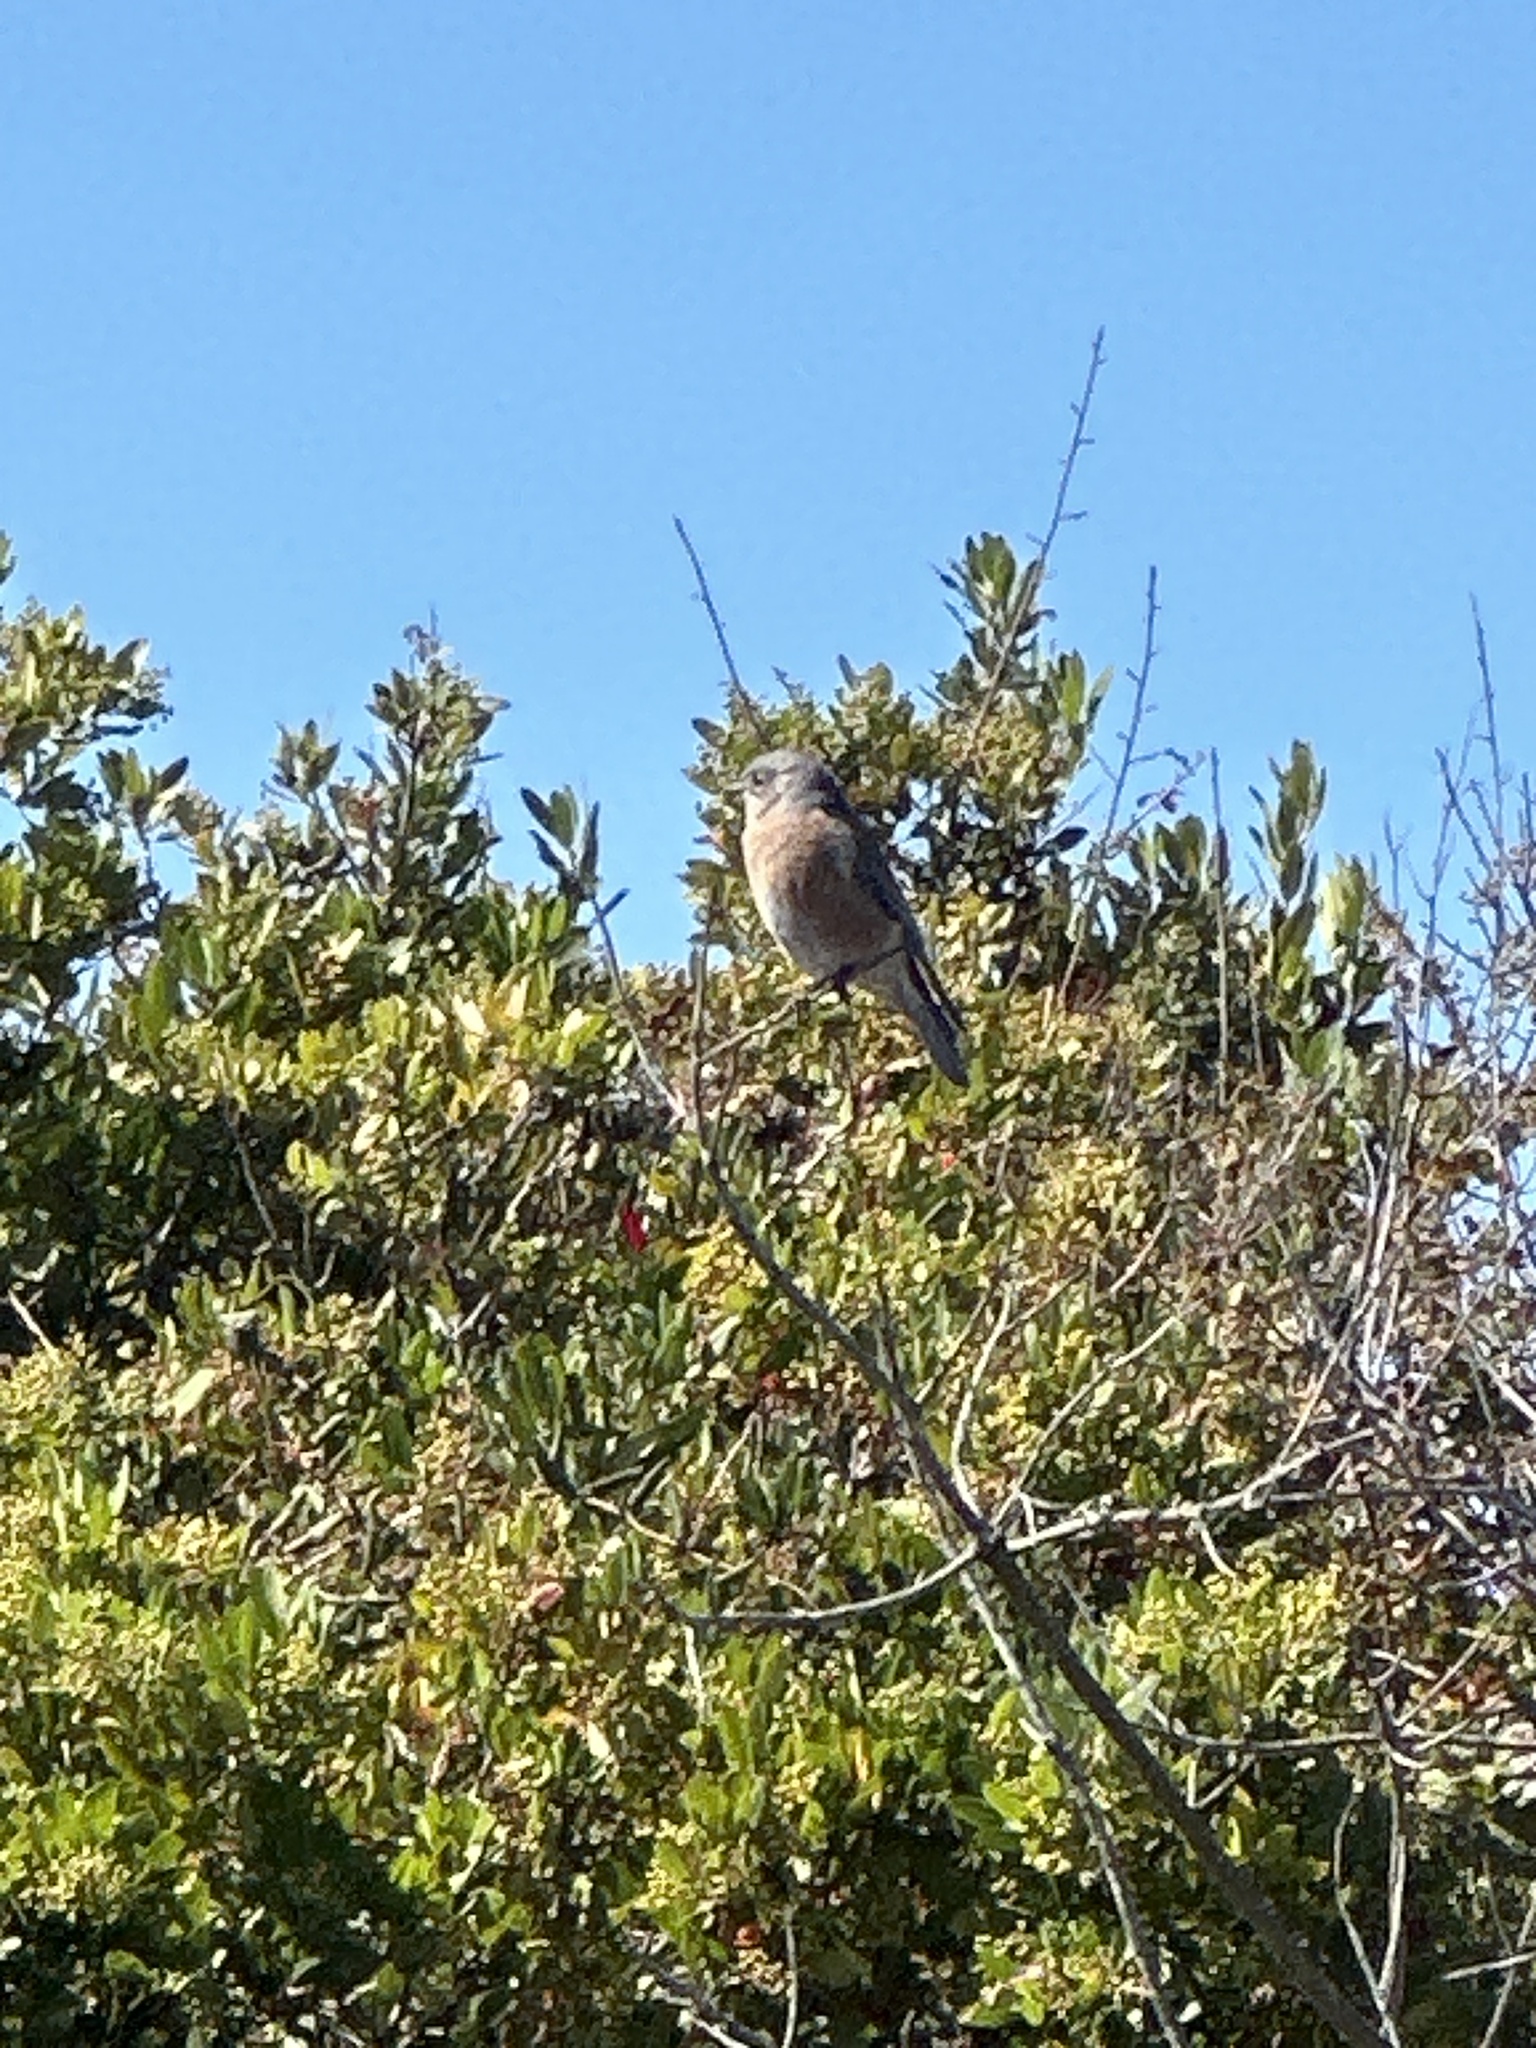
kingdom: Animalia
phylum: Chordata
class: Aves
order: Passeriformes
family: Turdidae
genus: Sialia
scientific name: Sialia mexicana
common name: Western bluebird
